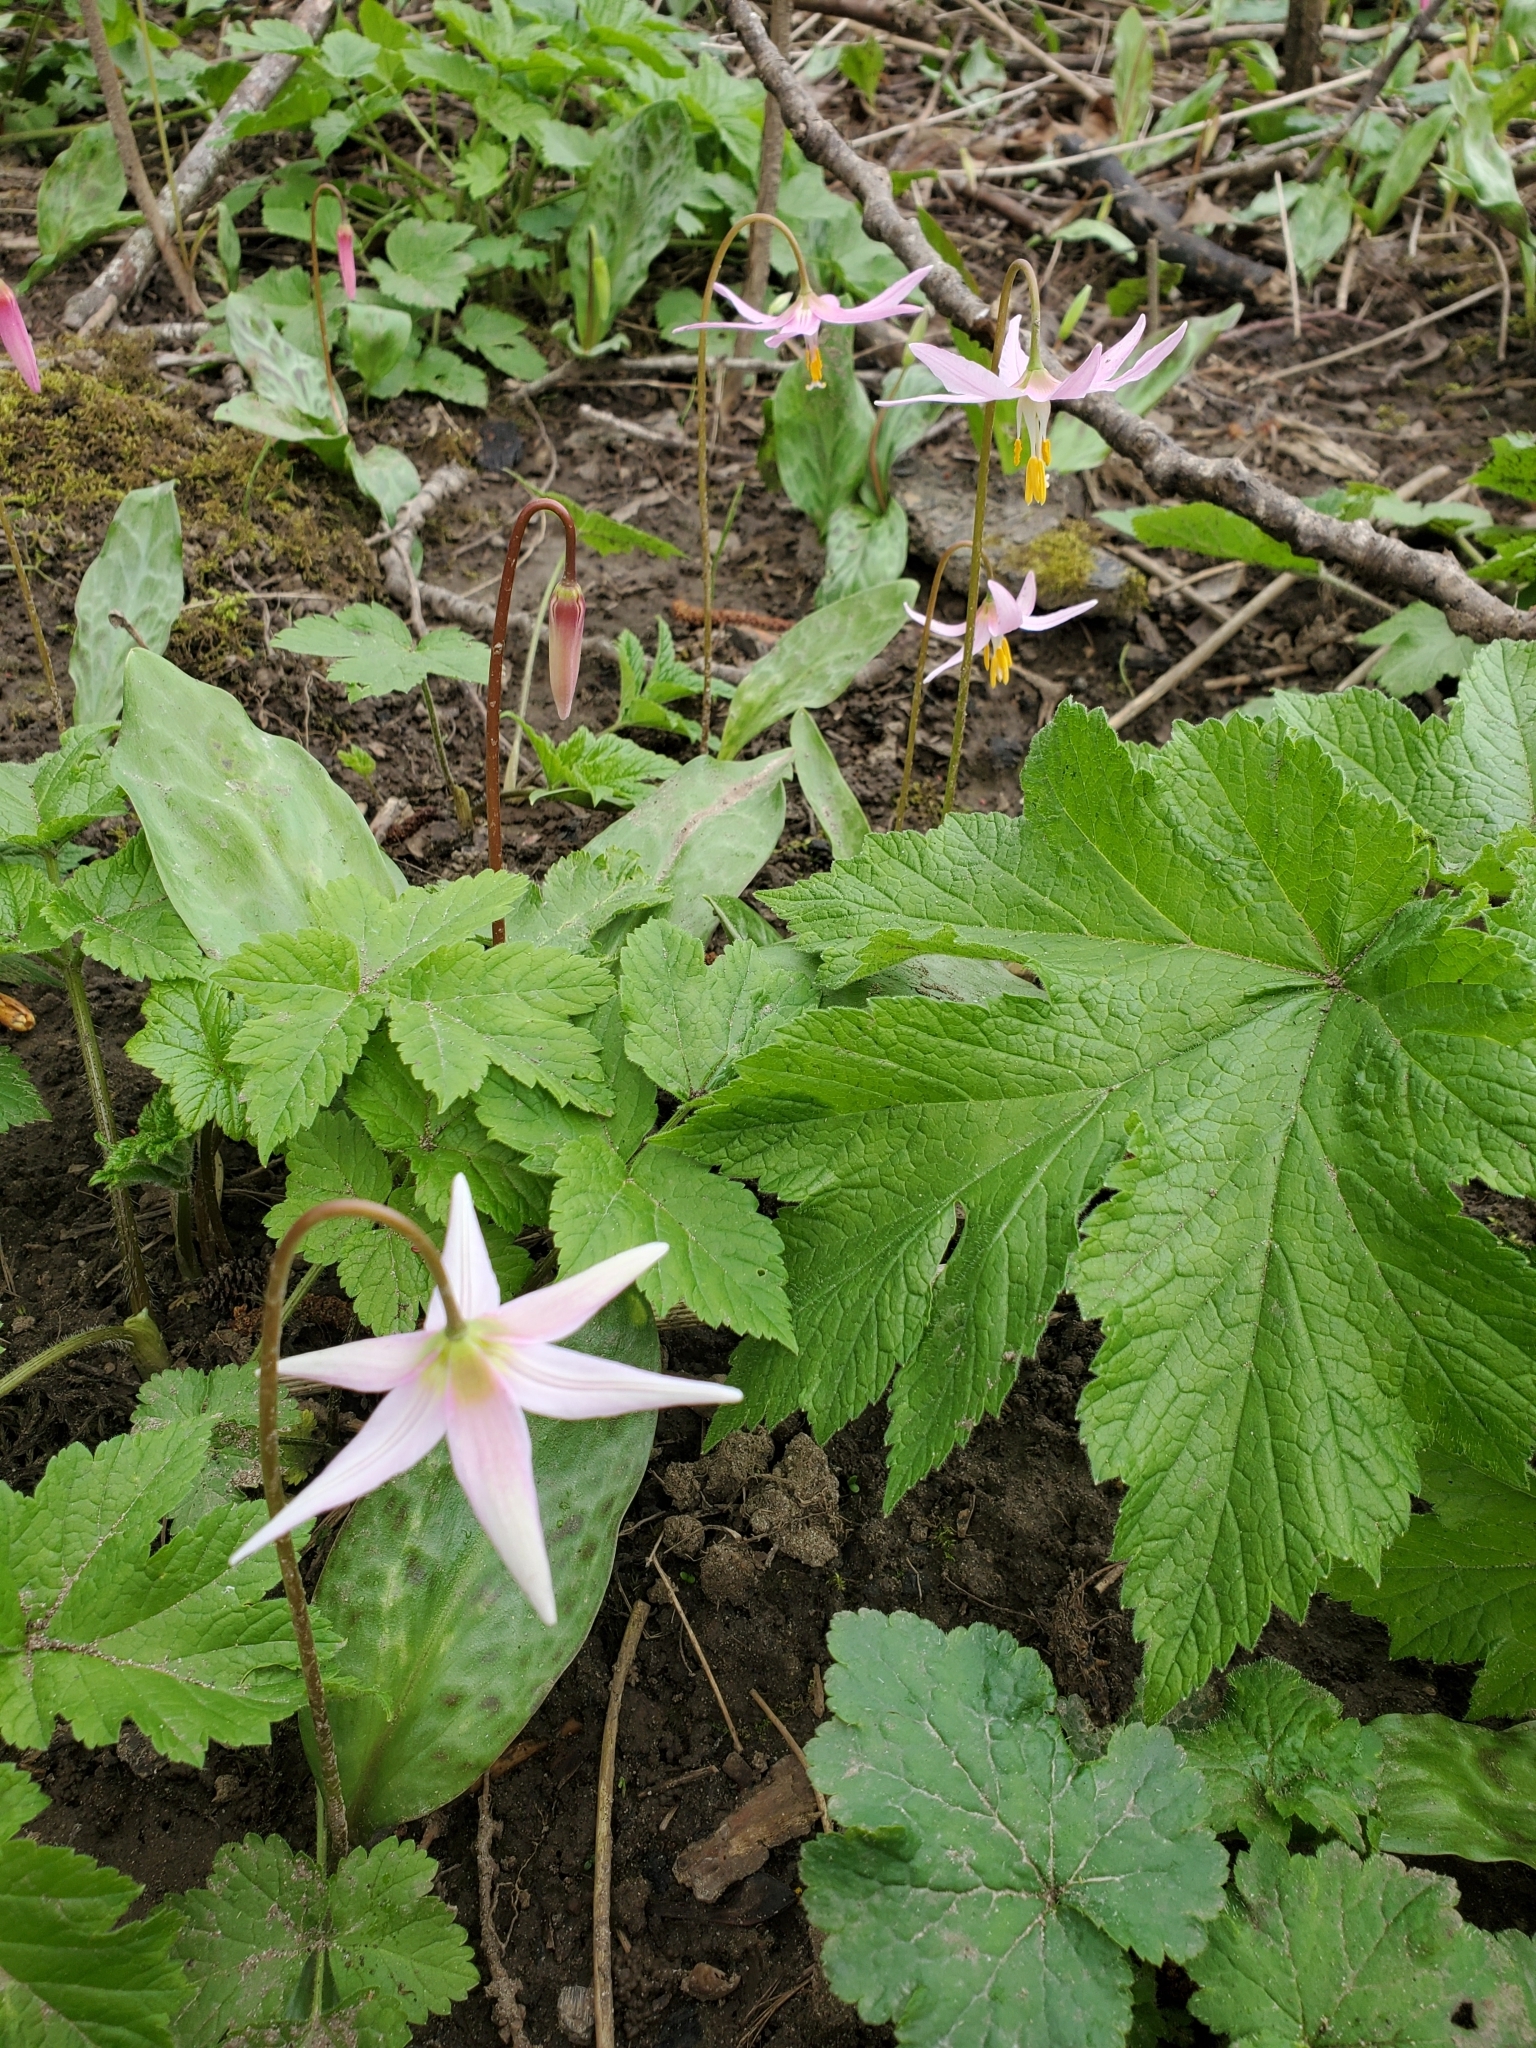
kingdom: Plantae
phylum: Tracheophyta
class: Liliopsida
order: Liliales
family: Liliaceae
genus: Erythronium
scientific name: Erythronium
